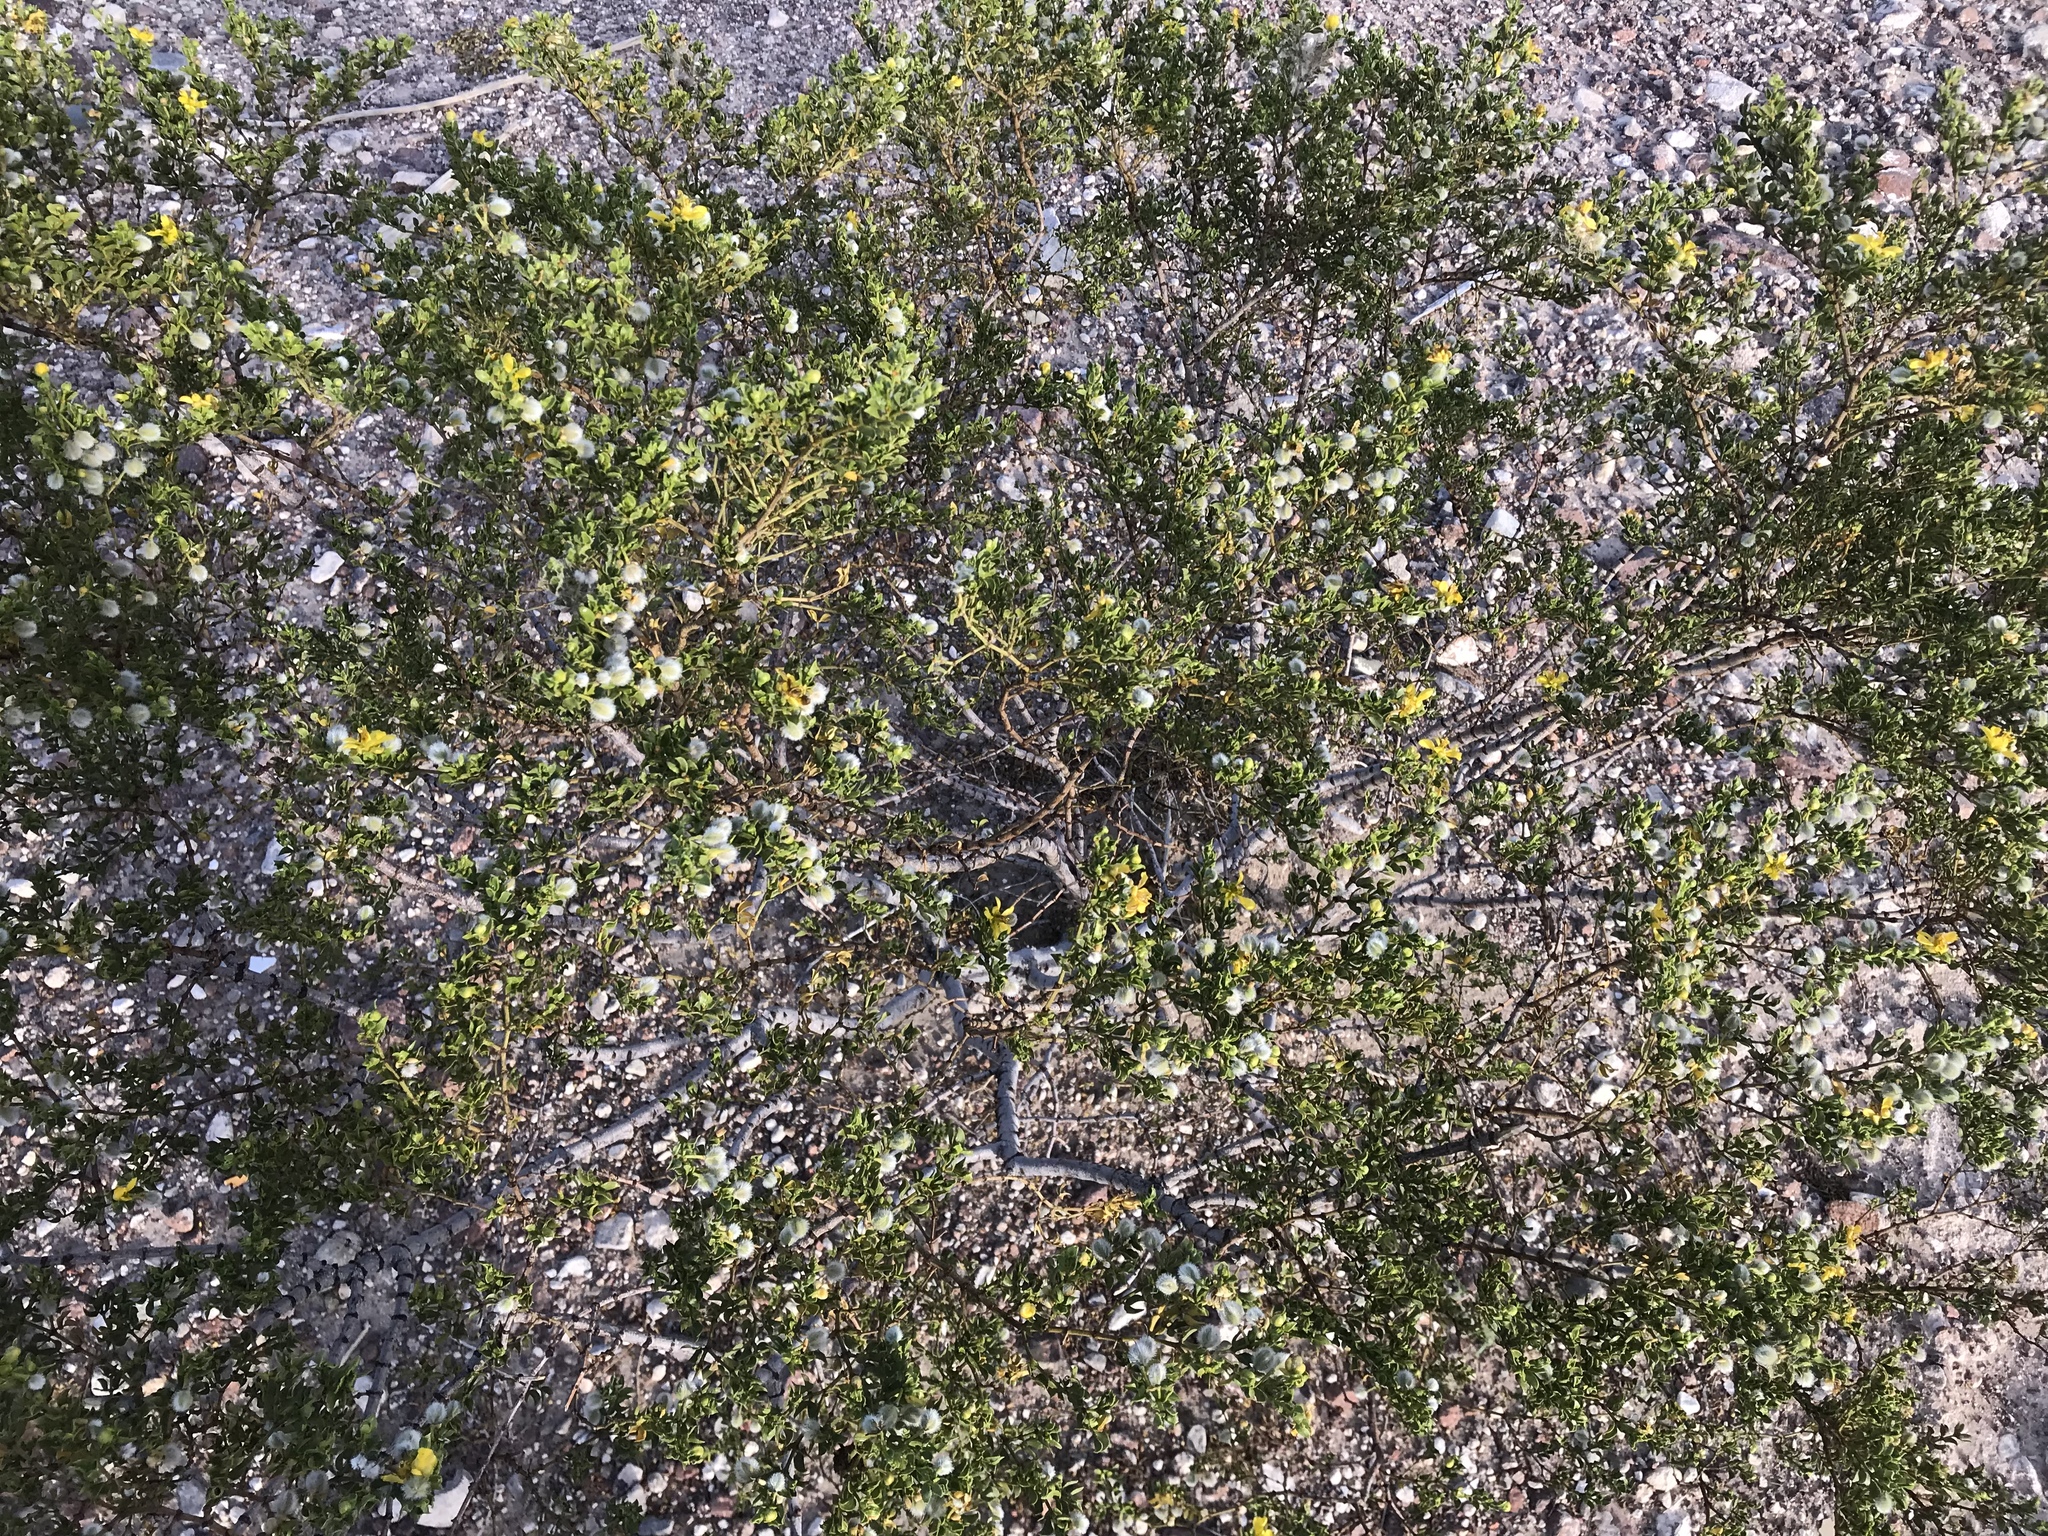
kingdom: Plantae
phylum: Tracheophyta
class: Magnoliopsida
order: Zygophyllales
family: Zygophyllaceae
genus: Larrea
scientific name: Larrea tridentata
